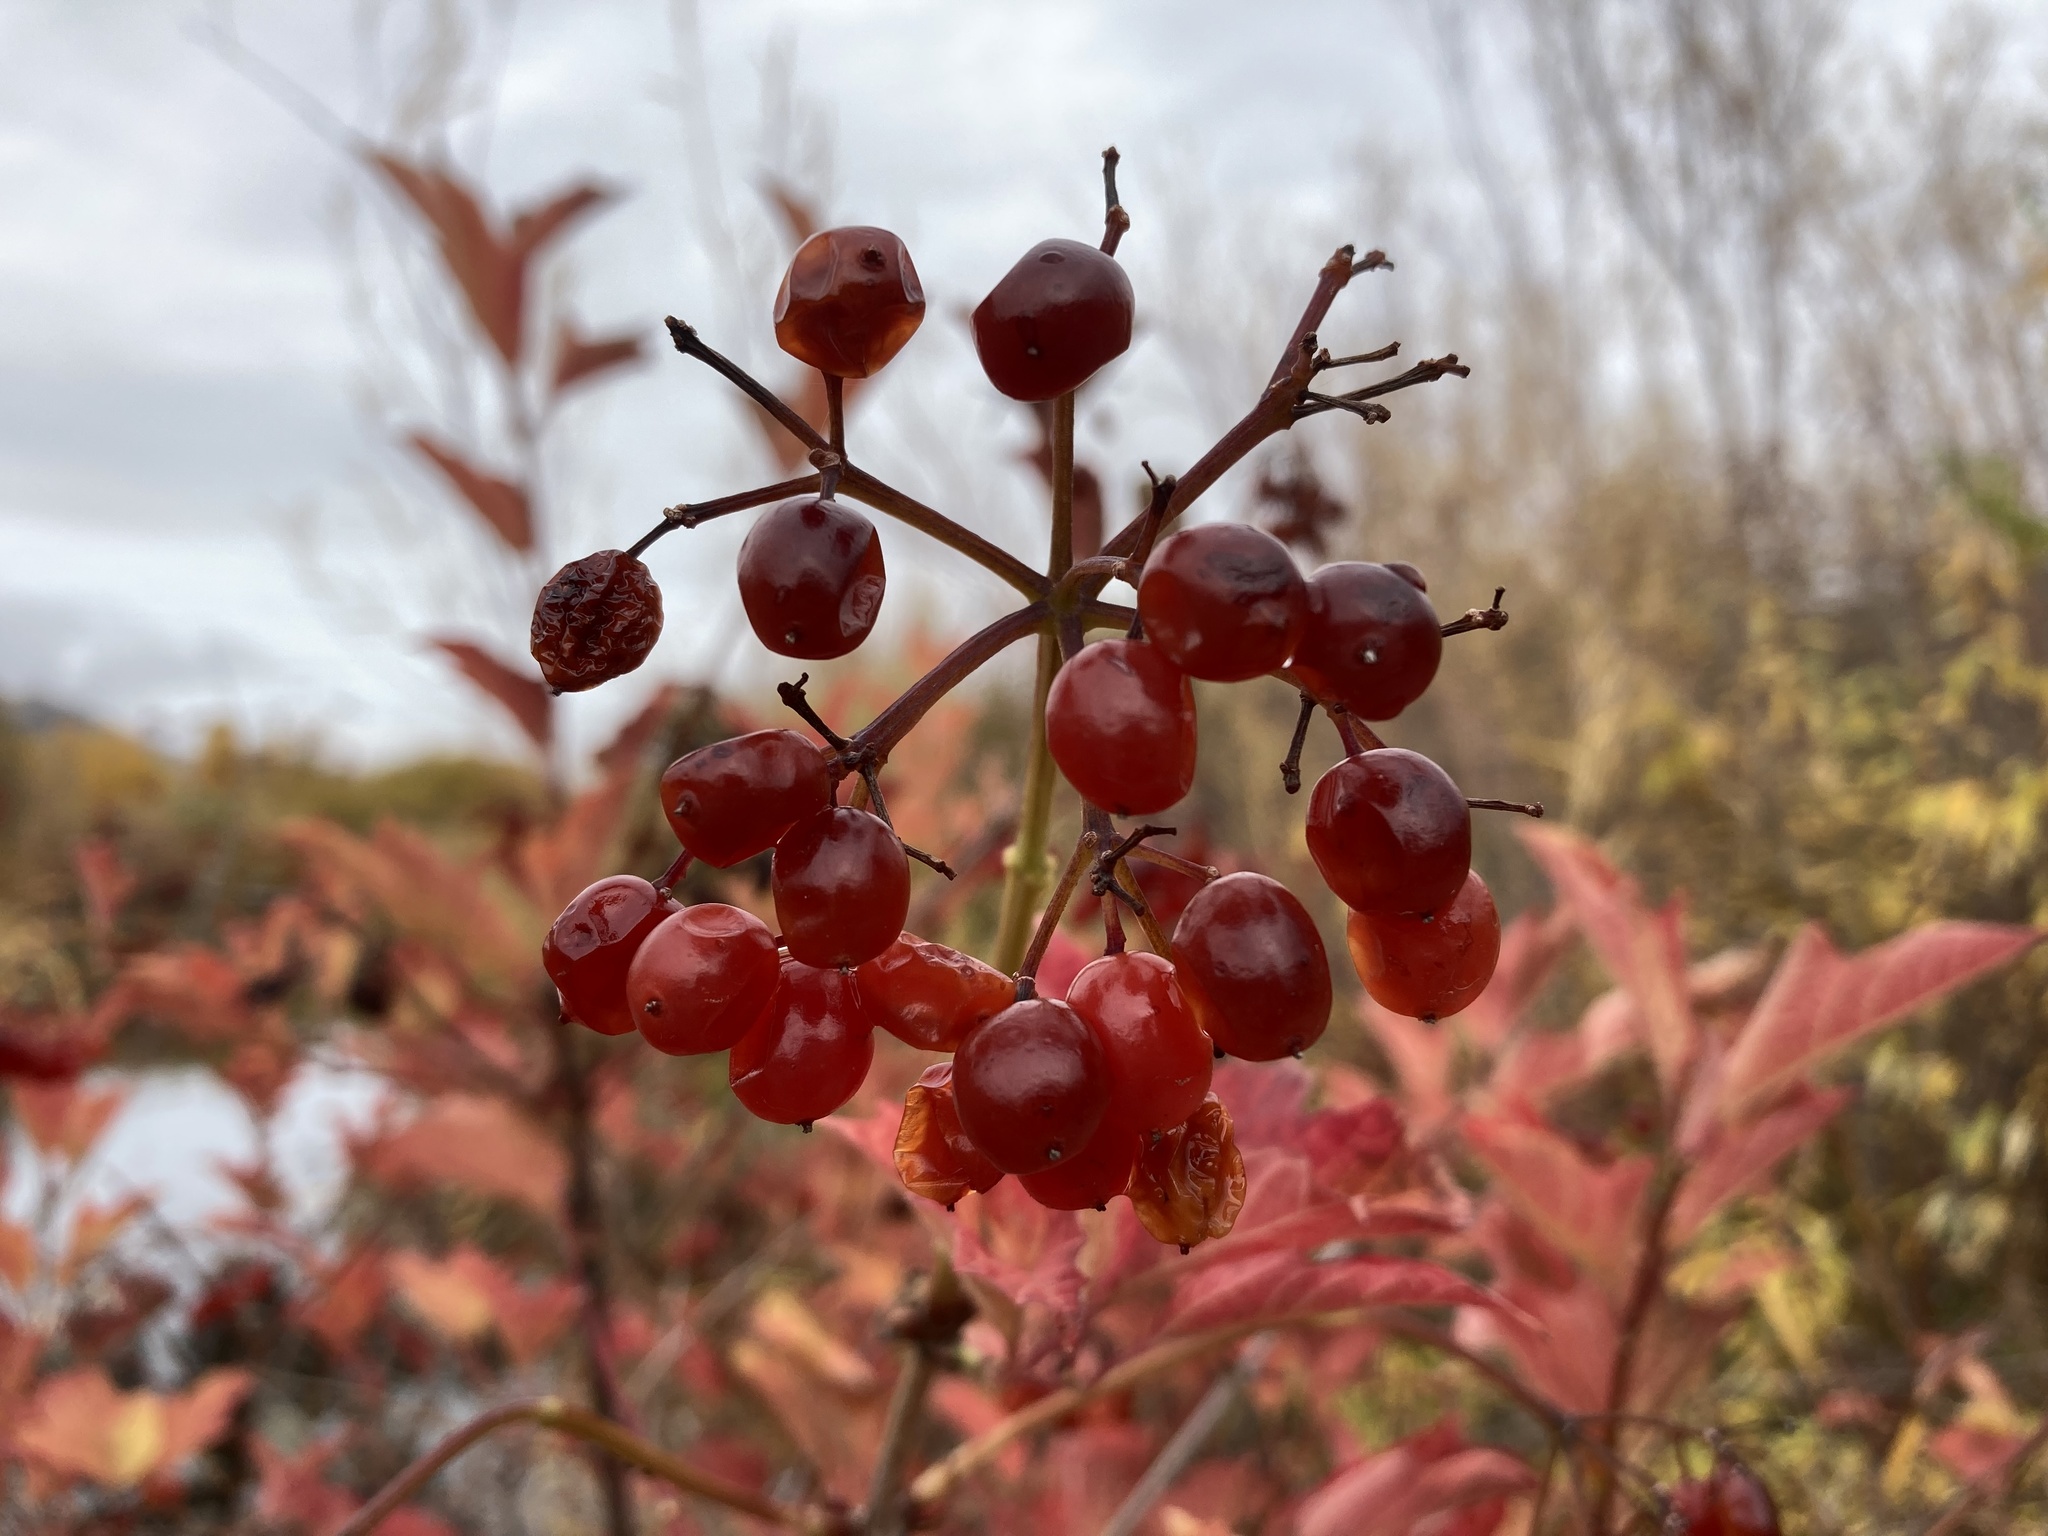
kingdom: Plantae
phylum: Tracheophyta
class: Magnoliopsida
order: Dipsacales
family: Viburnaceae
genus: Viburnum
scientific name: Viburnum opulus
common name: Guelder-rose
